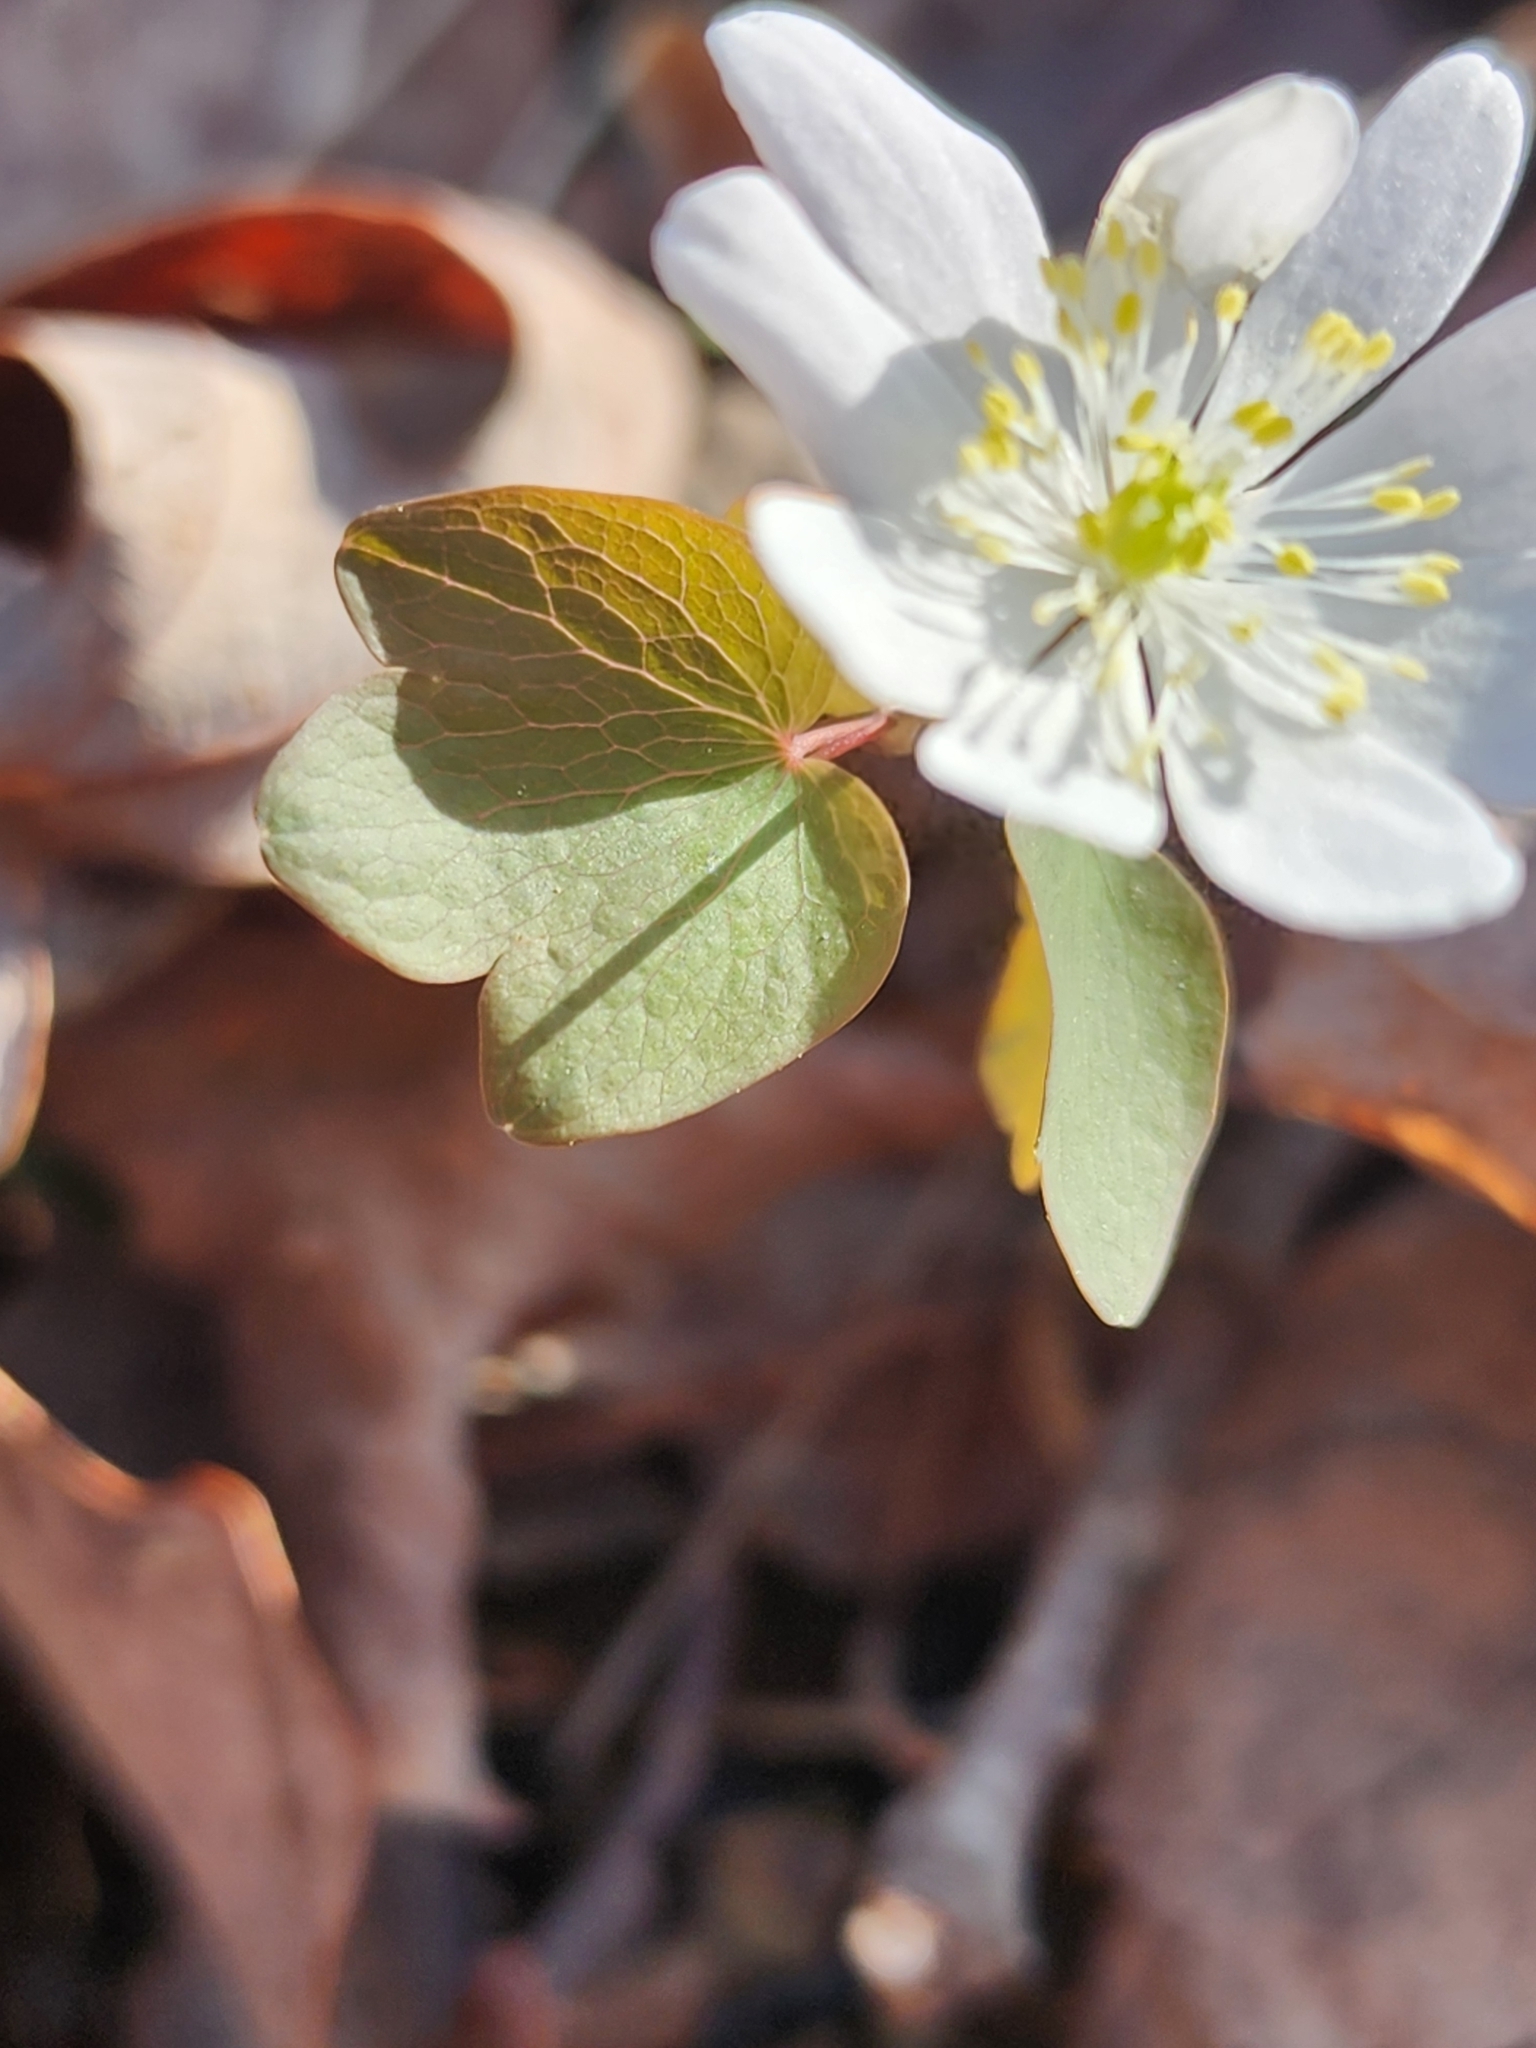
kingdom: Plantae
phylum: Tracheophyta
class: Magnoliopsida
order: Ranunculales
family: Ranunculaceae
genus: Thalictrum
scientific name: Thalictrum thalictroides
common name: Rue-anemone
